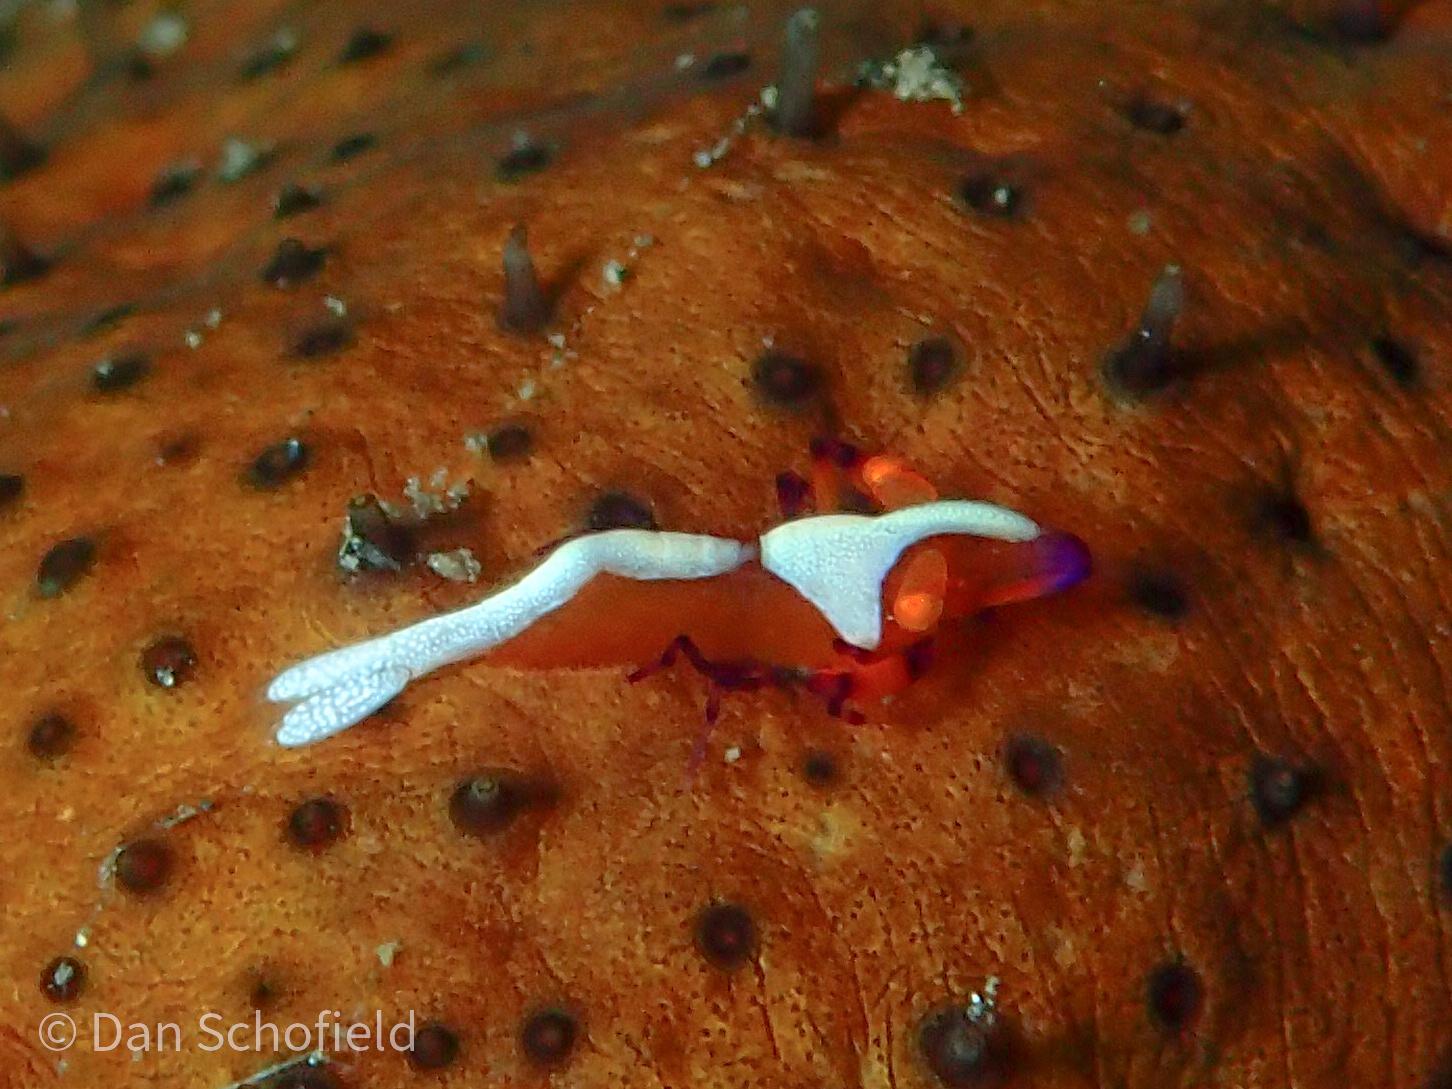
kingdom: Animalia
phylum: Arthropoda
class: Malacostraca
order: Decapoda
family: Palaemonidae
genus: Periclimenes
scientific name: Periclimenes rex
